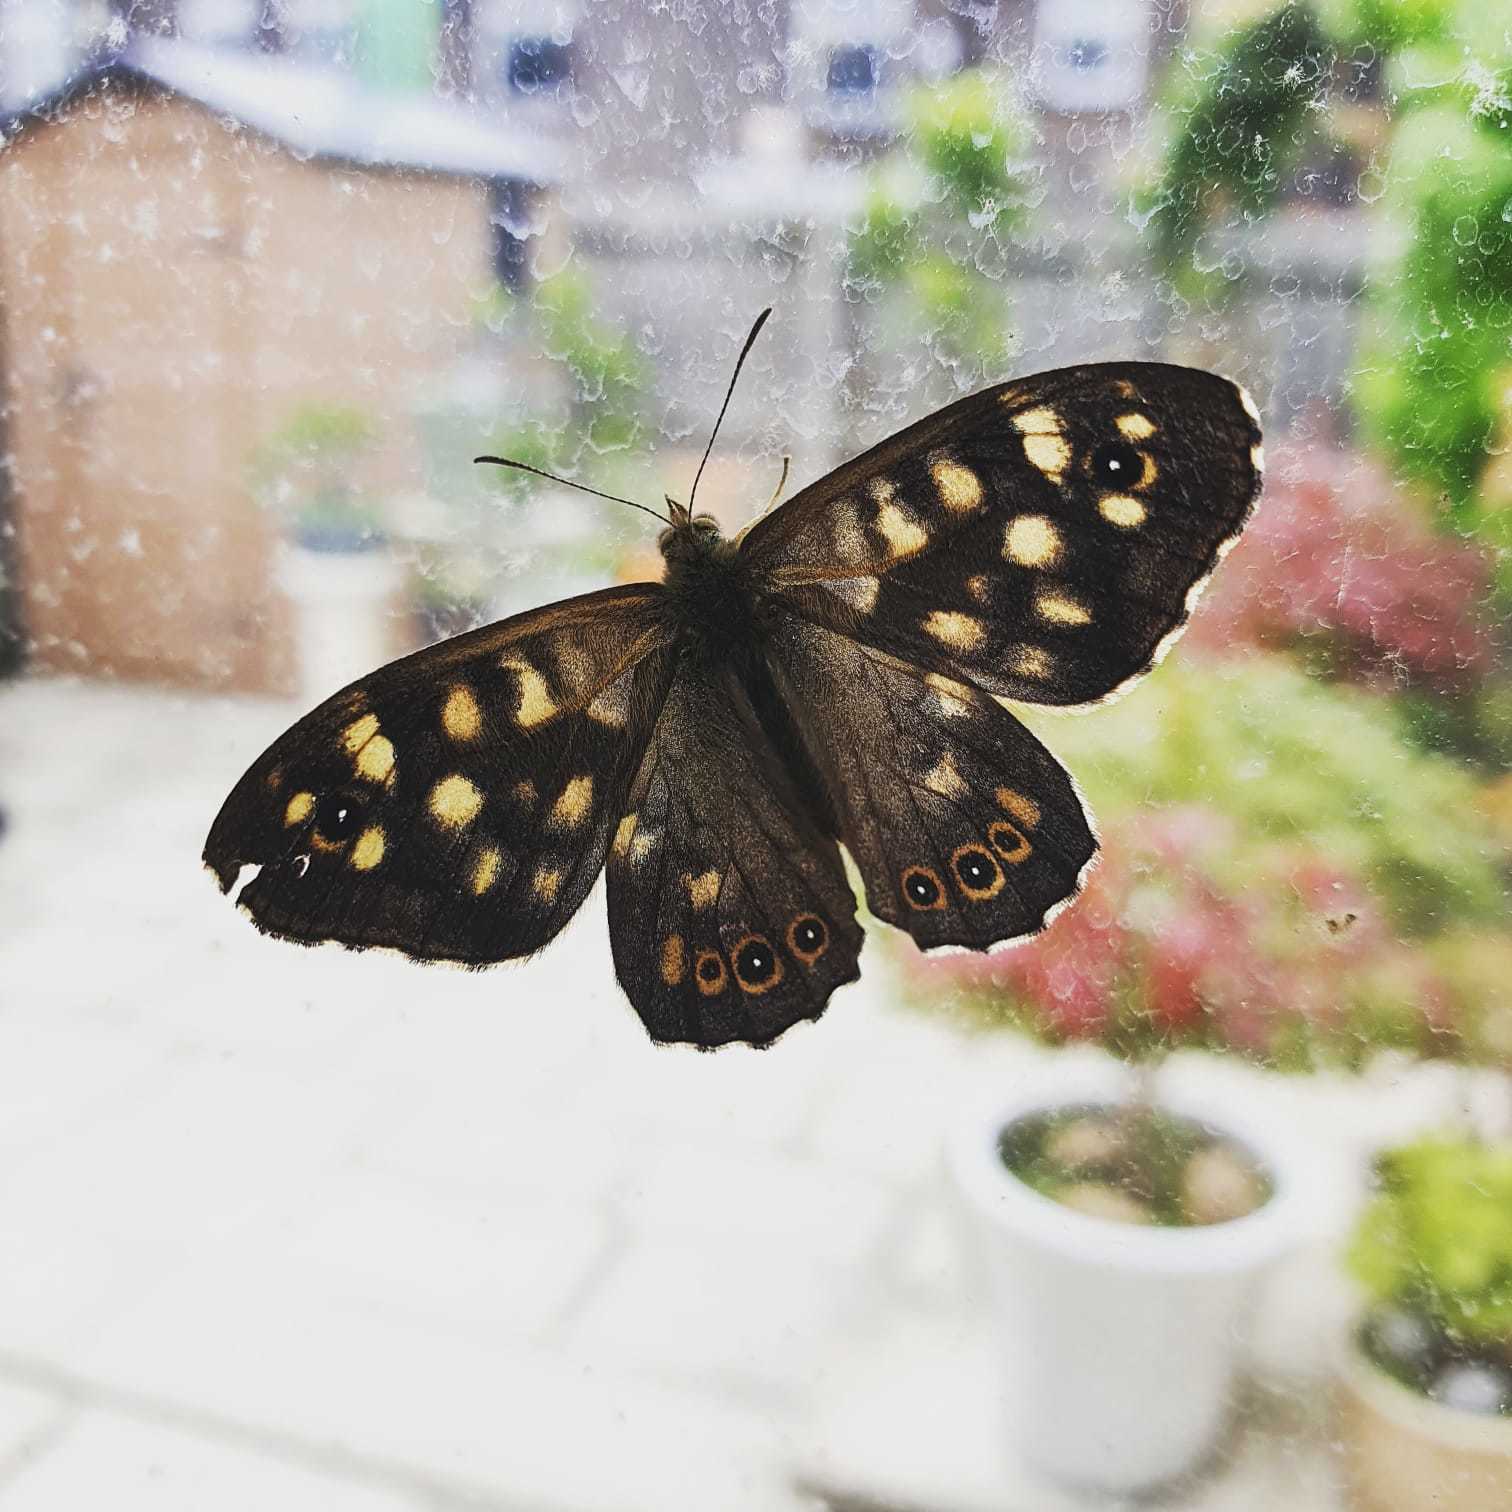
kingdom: Animalia
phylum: Arthropoda
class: Insecta
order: Lepidoptera
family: Nymphalidae
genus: Pararge
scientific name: Pararge aegeria
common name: Speckled wood
